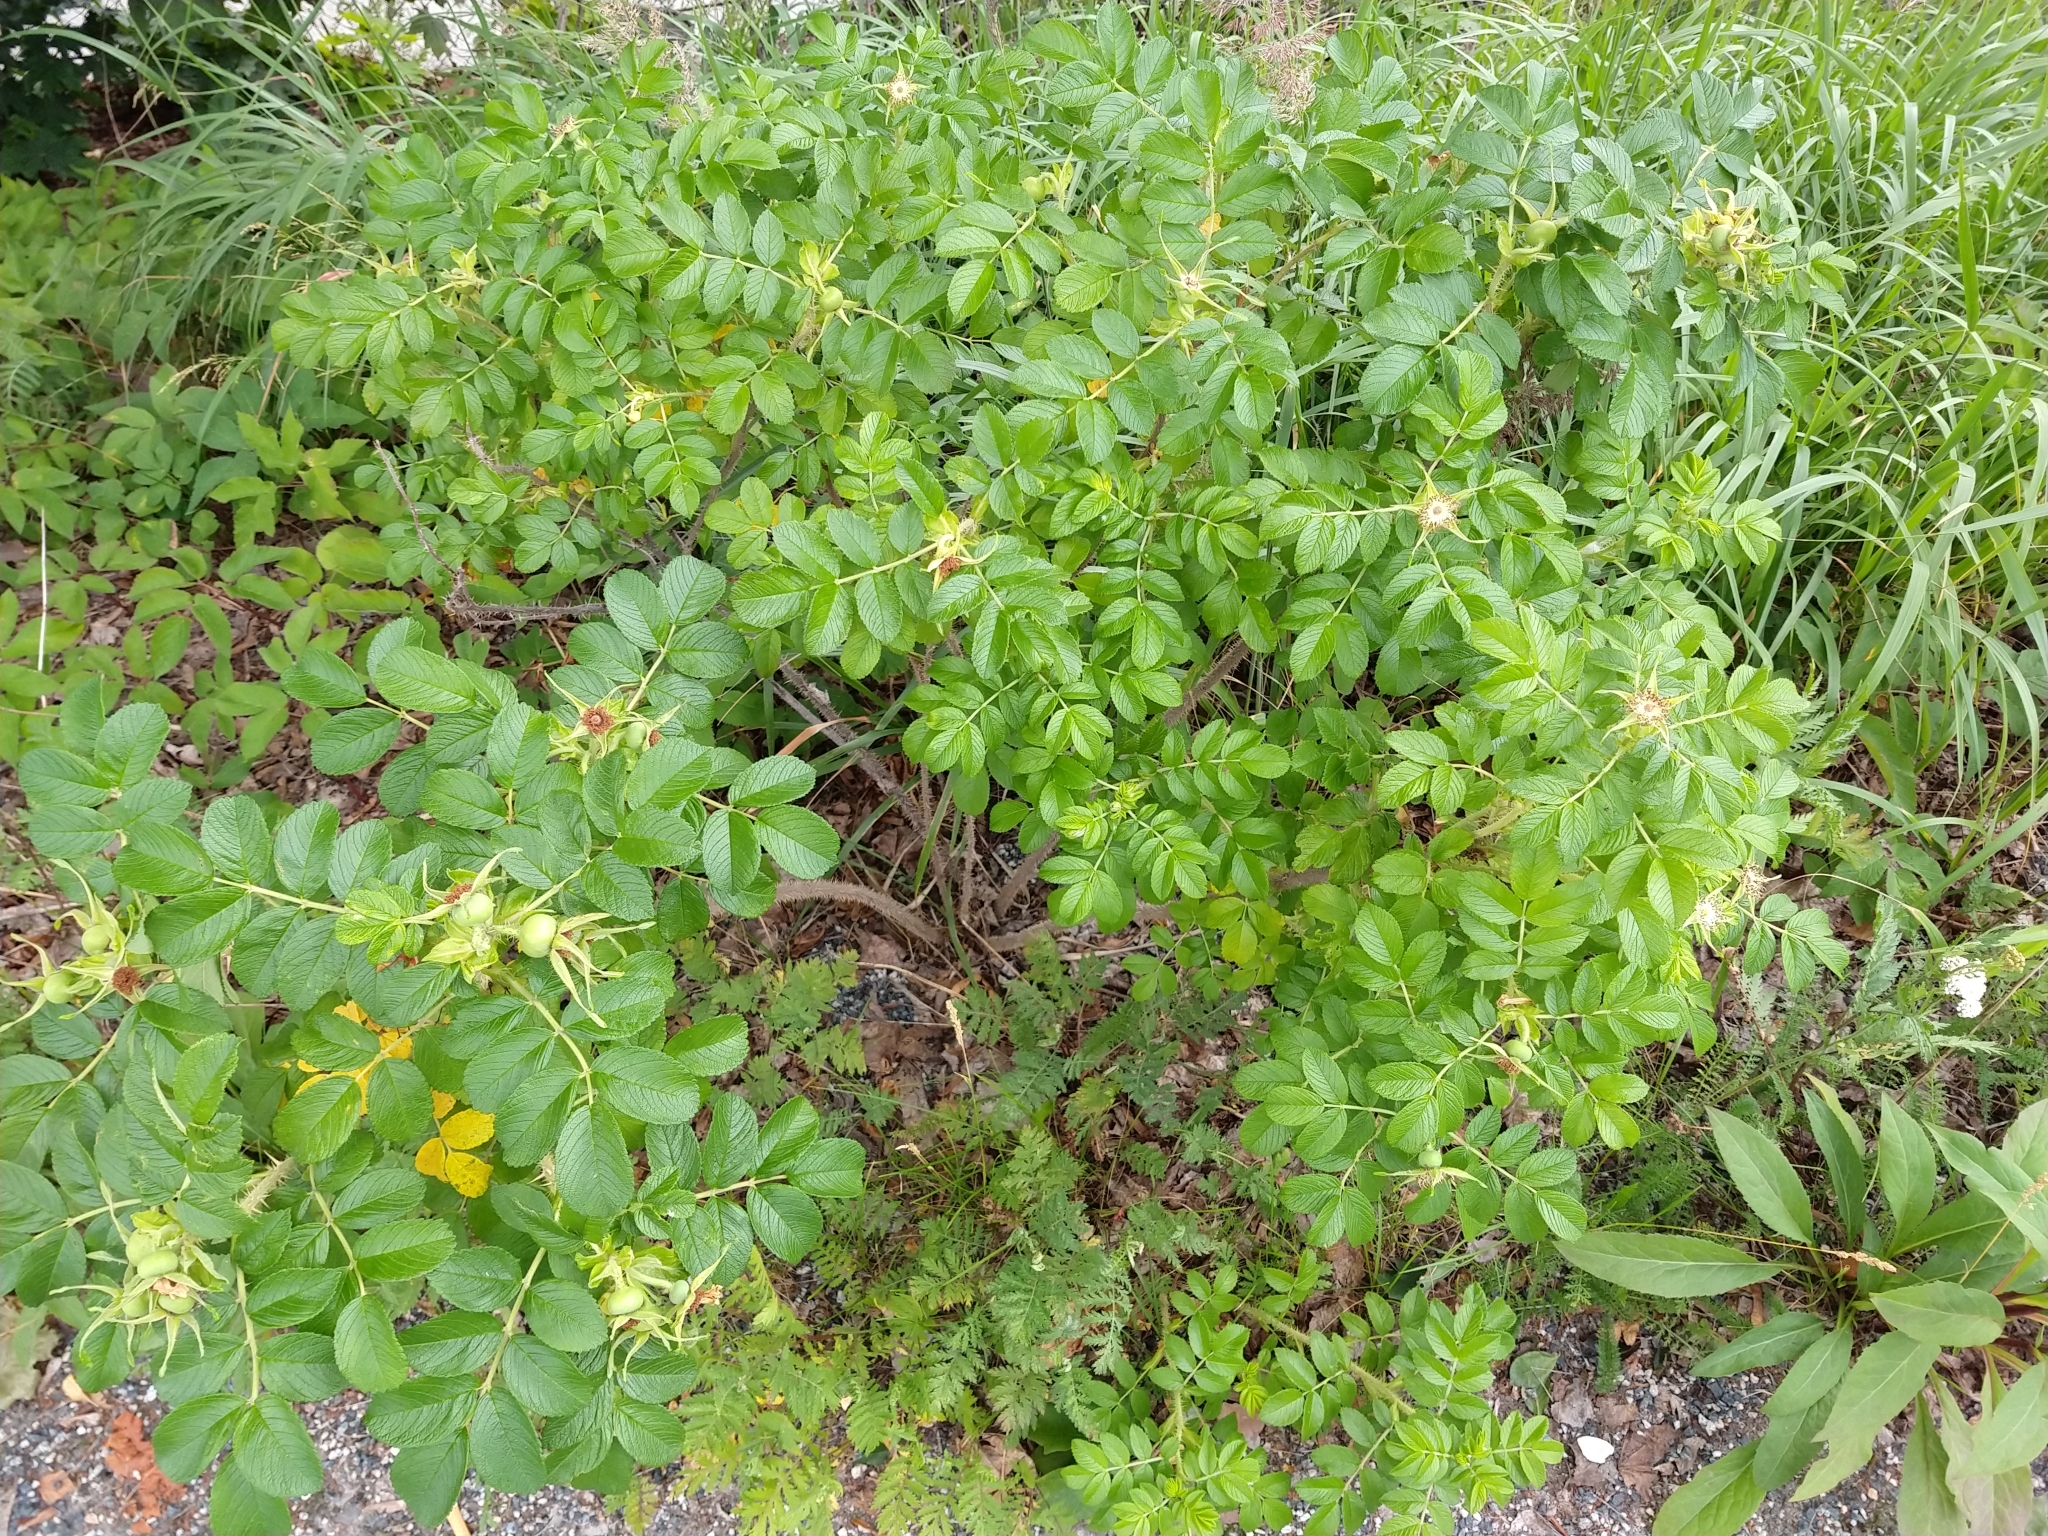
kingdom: Plantae
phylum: Tracheophyta
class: Magnoliopsida
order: Rosales
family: Rosaceae
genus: Rosa
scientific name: Rosa rugosa
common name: Japanese rose
